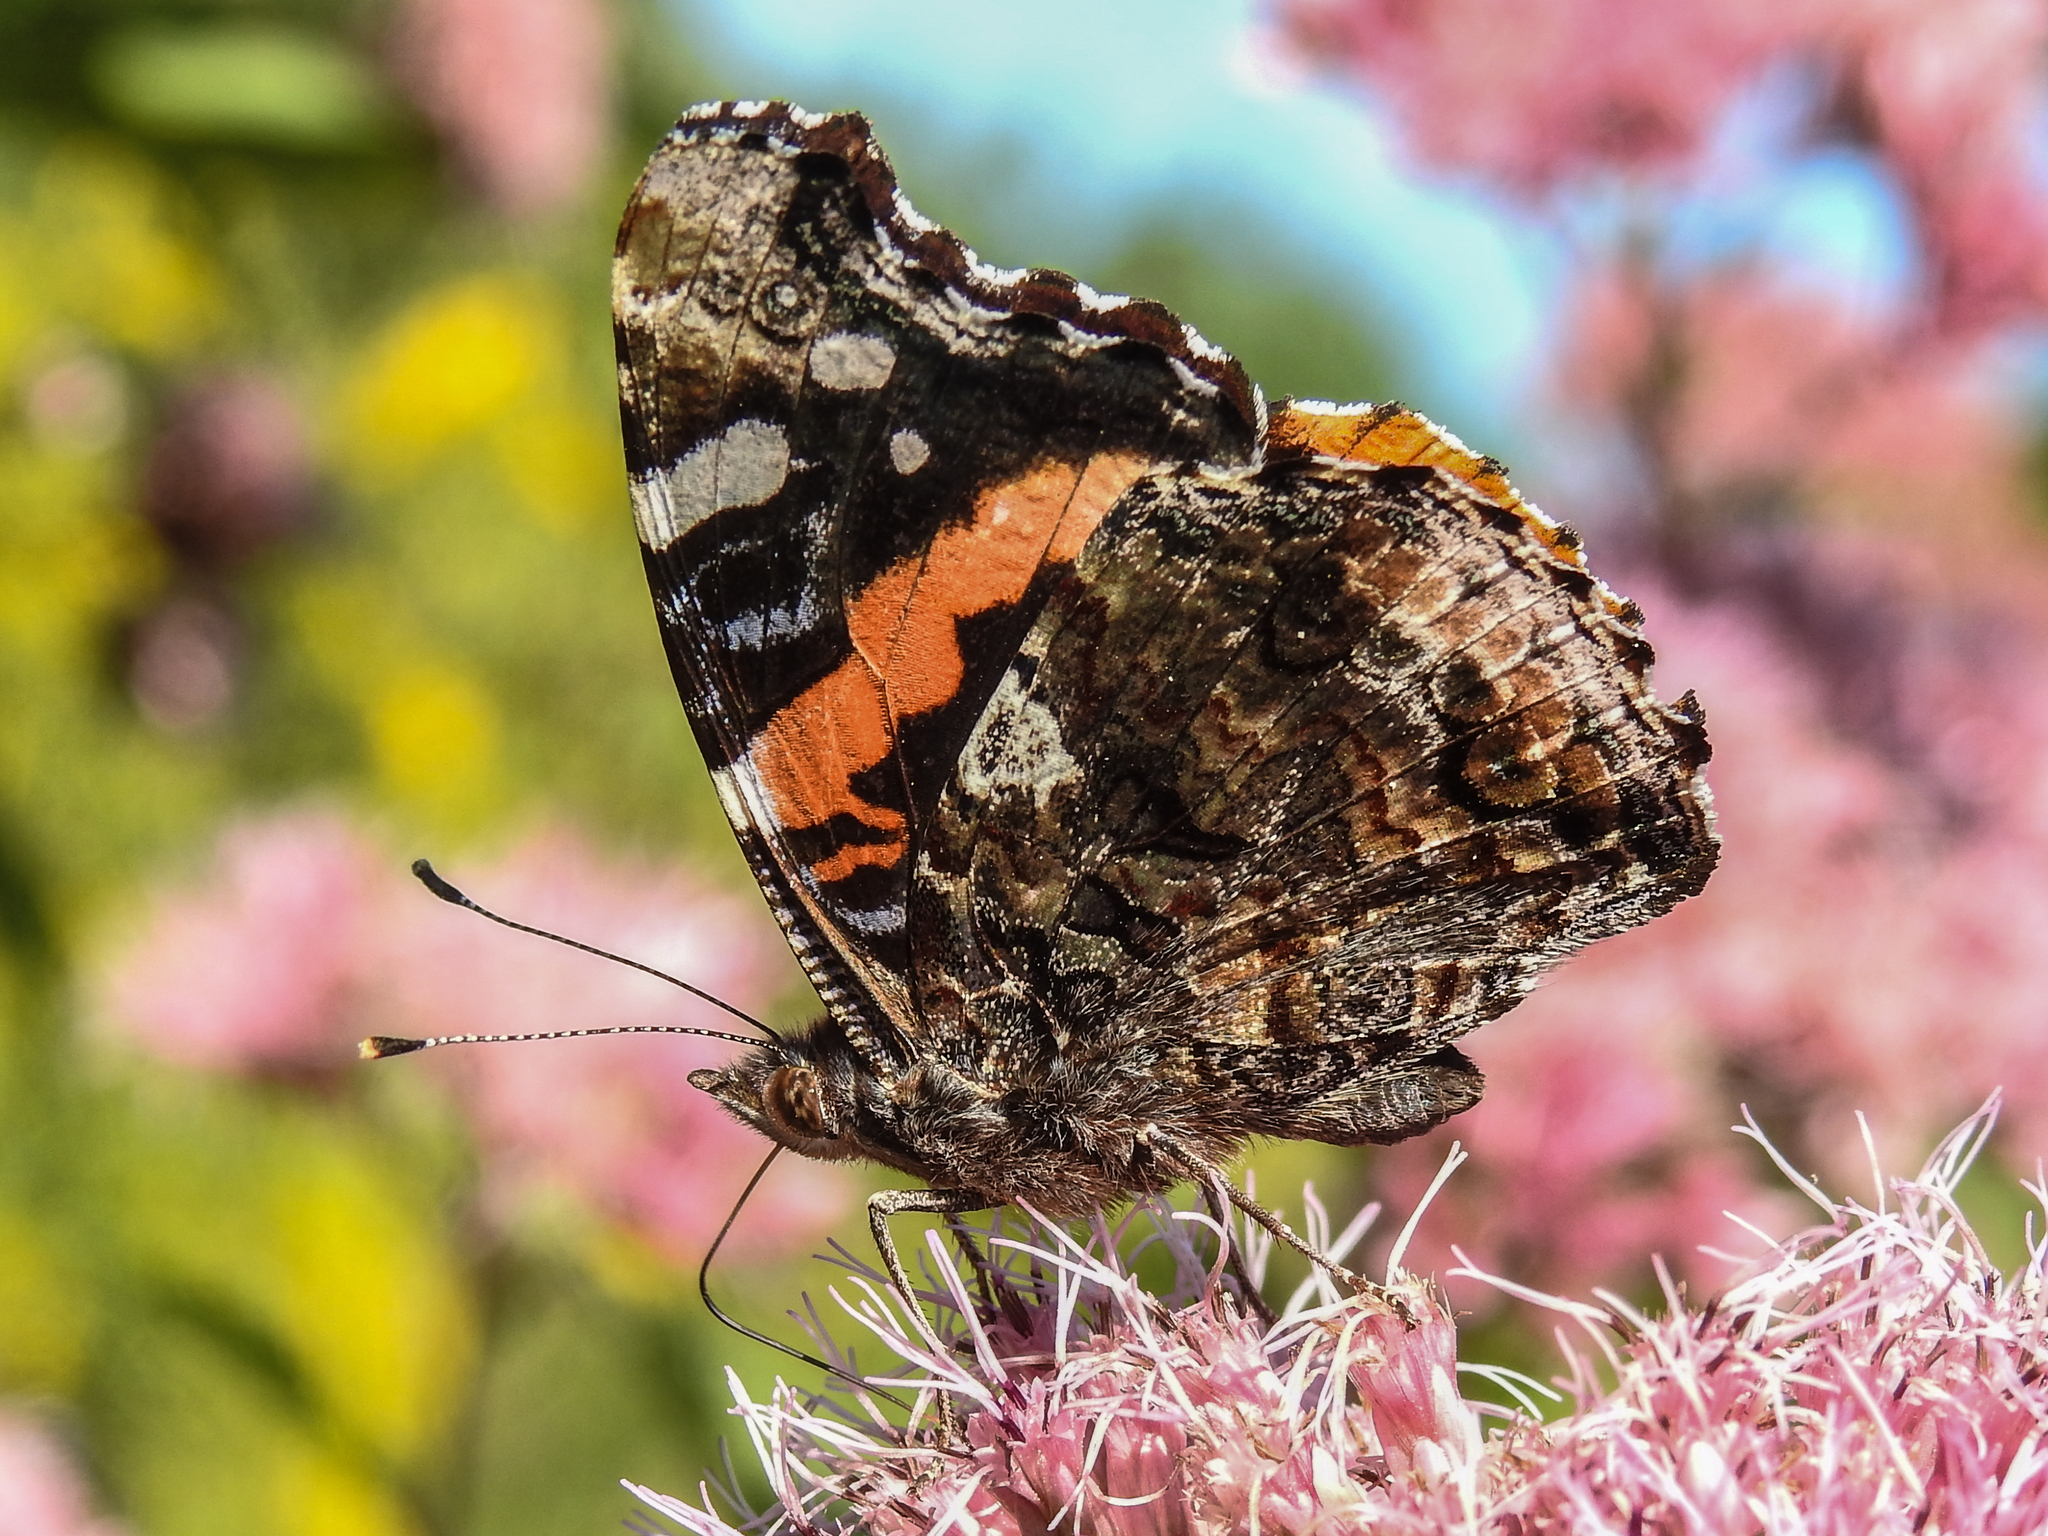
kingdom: Animalia
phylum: Arthropoda
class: Insecta
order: Lepidoptera
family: Nymphalidae
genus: Vanessa
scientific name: Vanessa atalanta
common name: Red admiral
